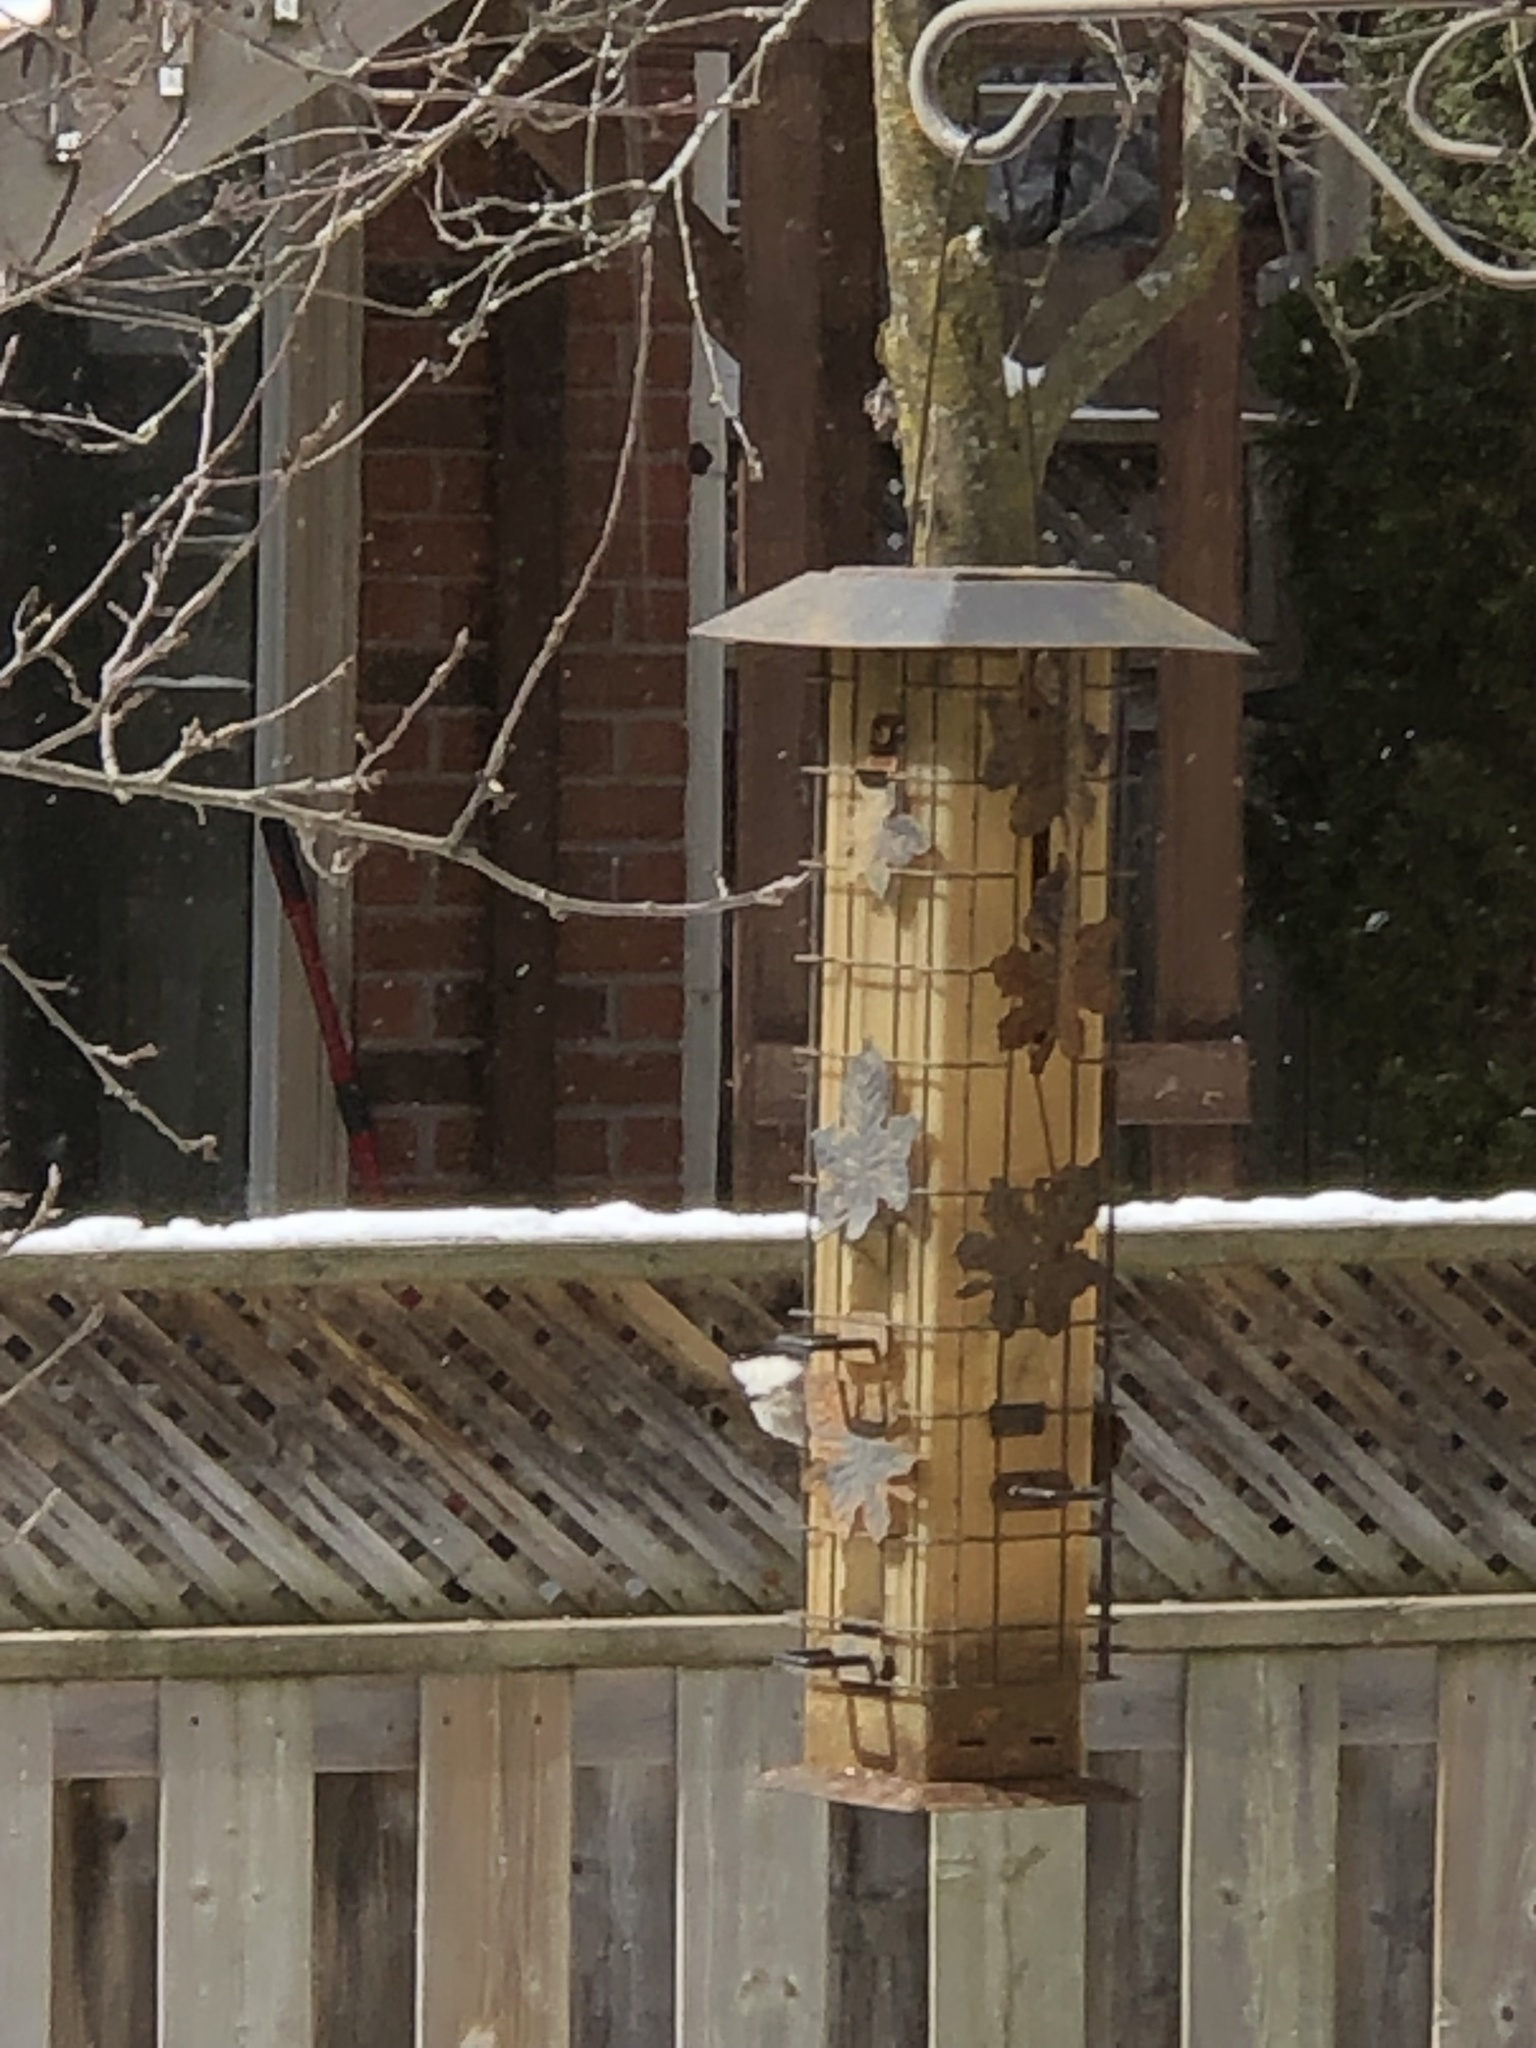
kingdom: Animalia
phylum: Chordata
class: Aves
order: Passeriformes
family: Paridae
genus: Poecile
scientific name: Poecile atricapillus
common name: Black-capped chickadee
